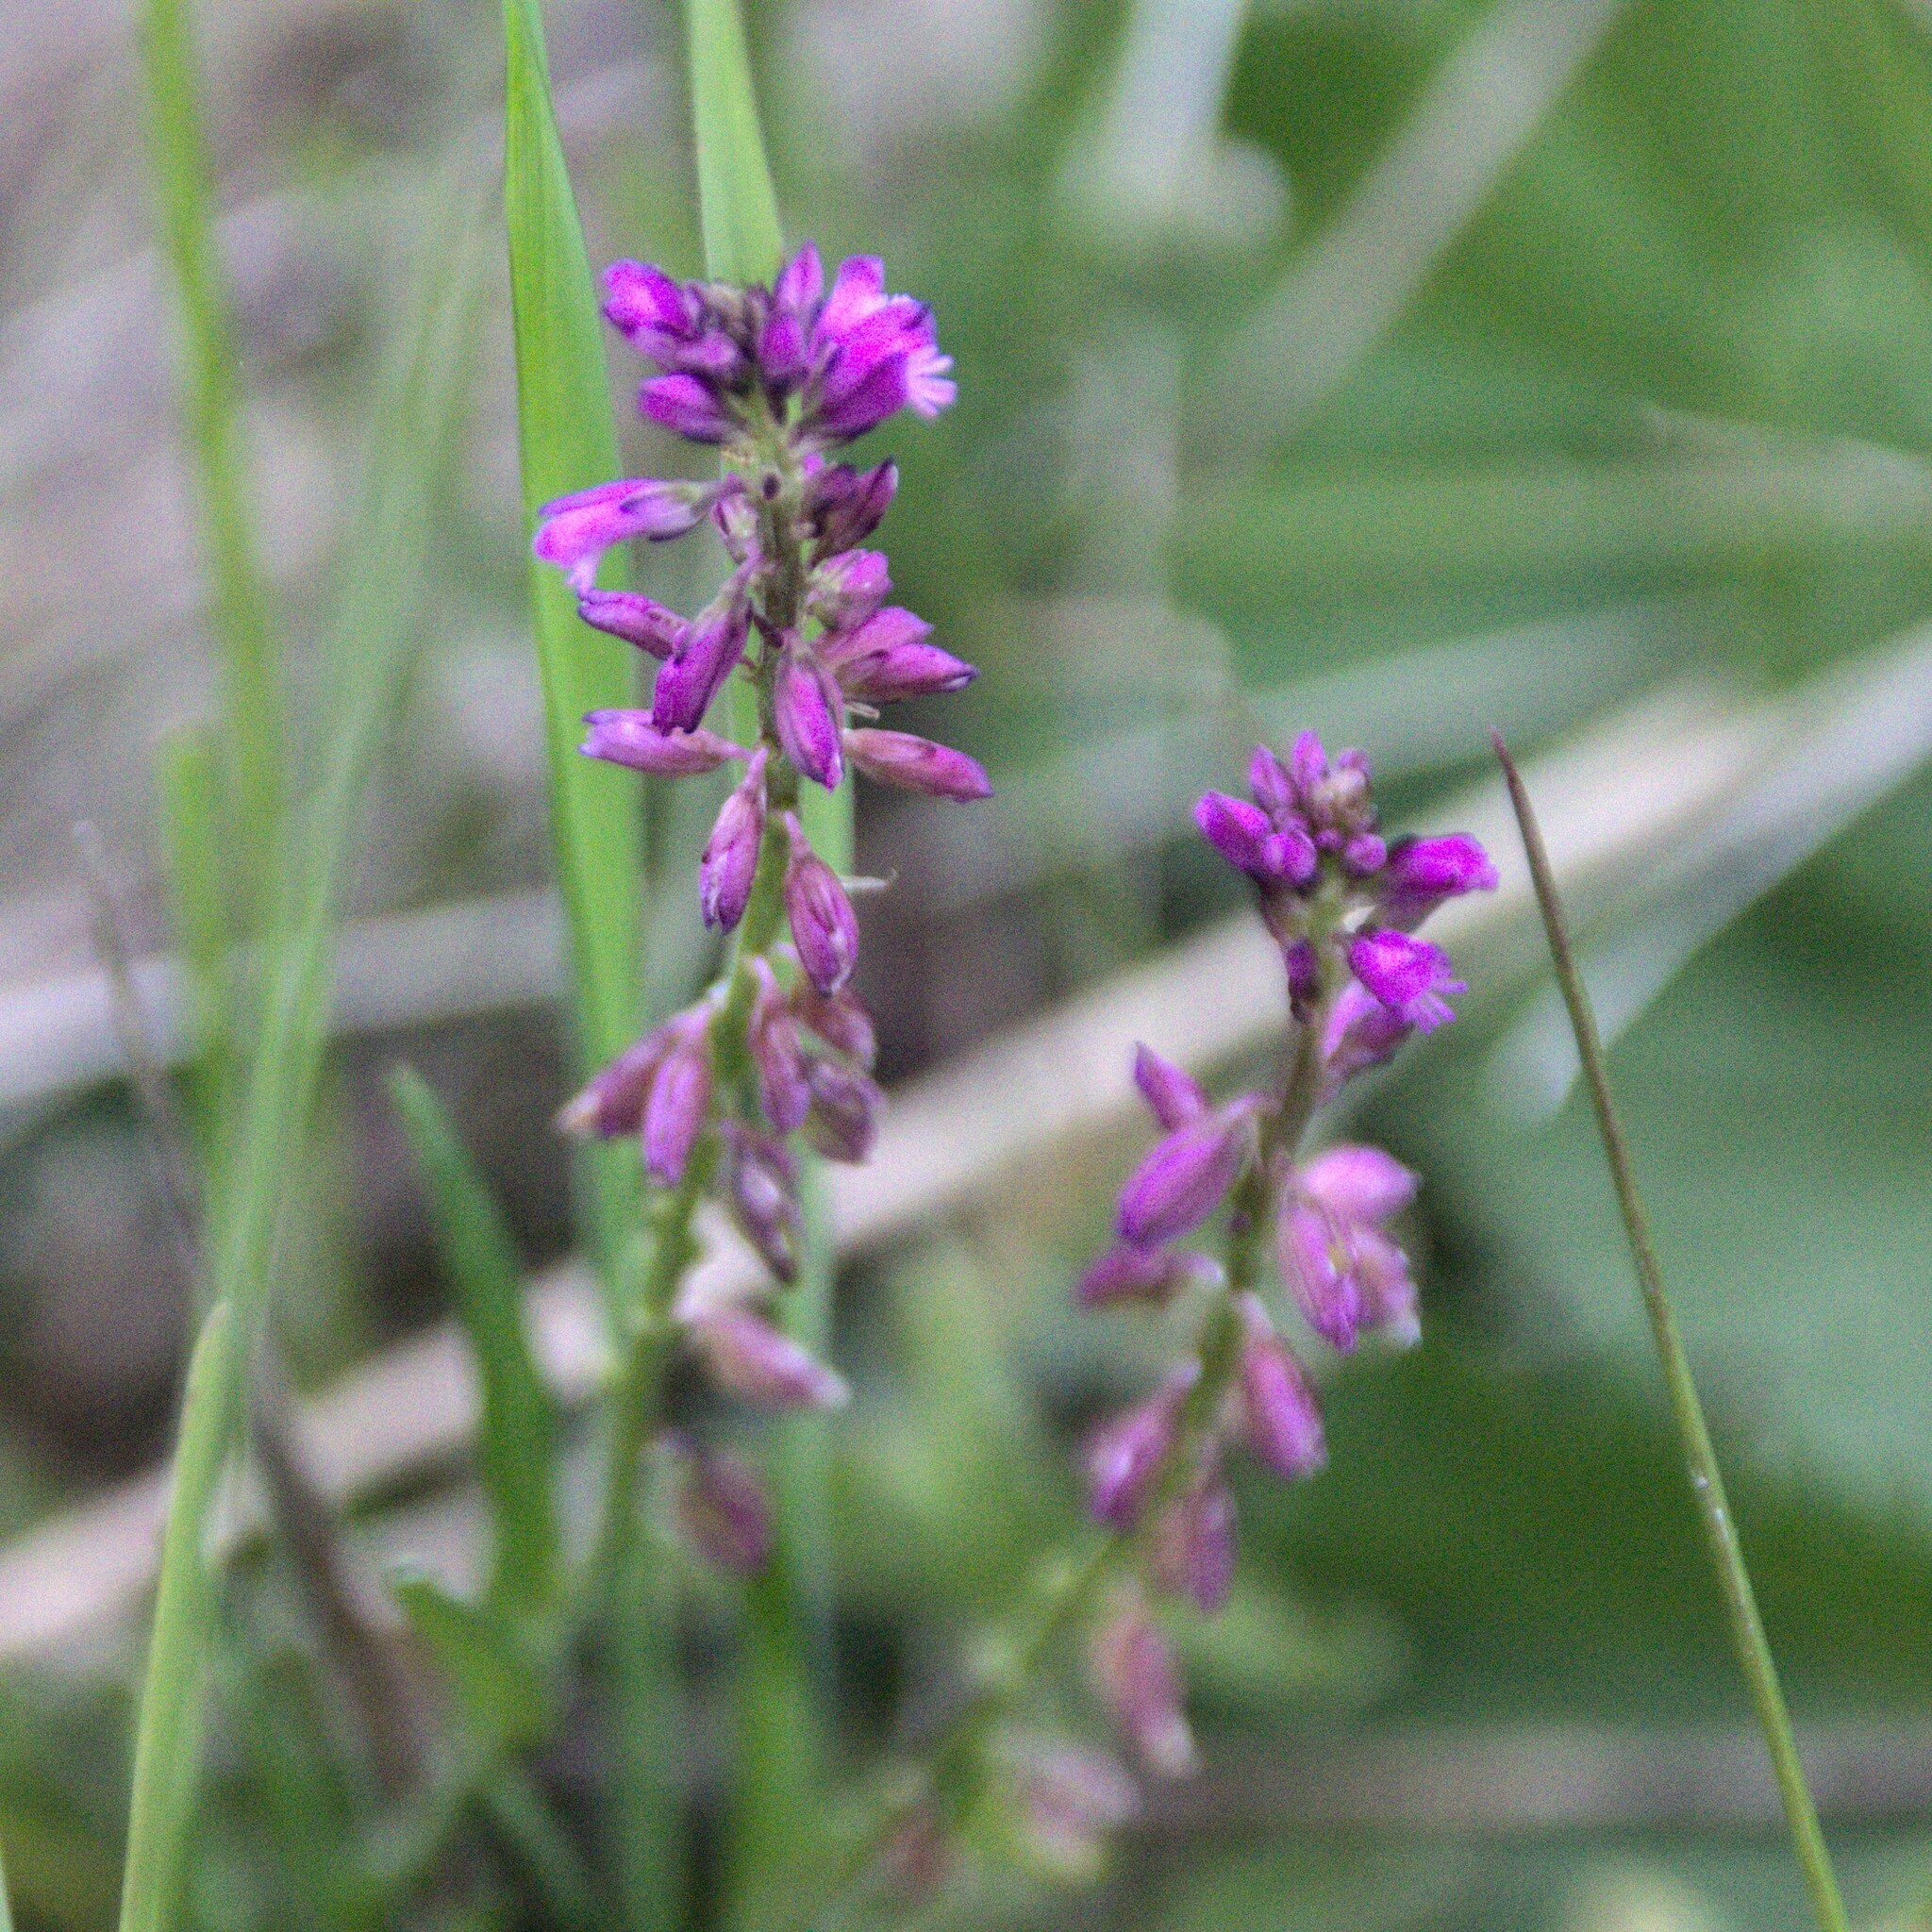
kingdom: Plantae
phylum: Tracheophyta
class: Magnoliopsida
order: Fabales
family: Polygalaceae
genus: Polygala
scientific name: Polygala comosa
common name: Tufted milkwort
